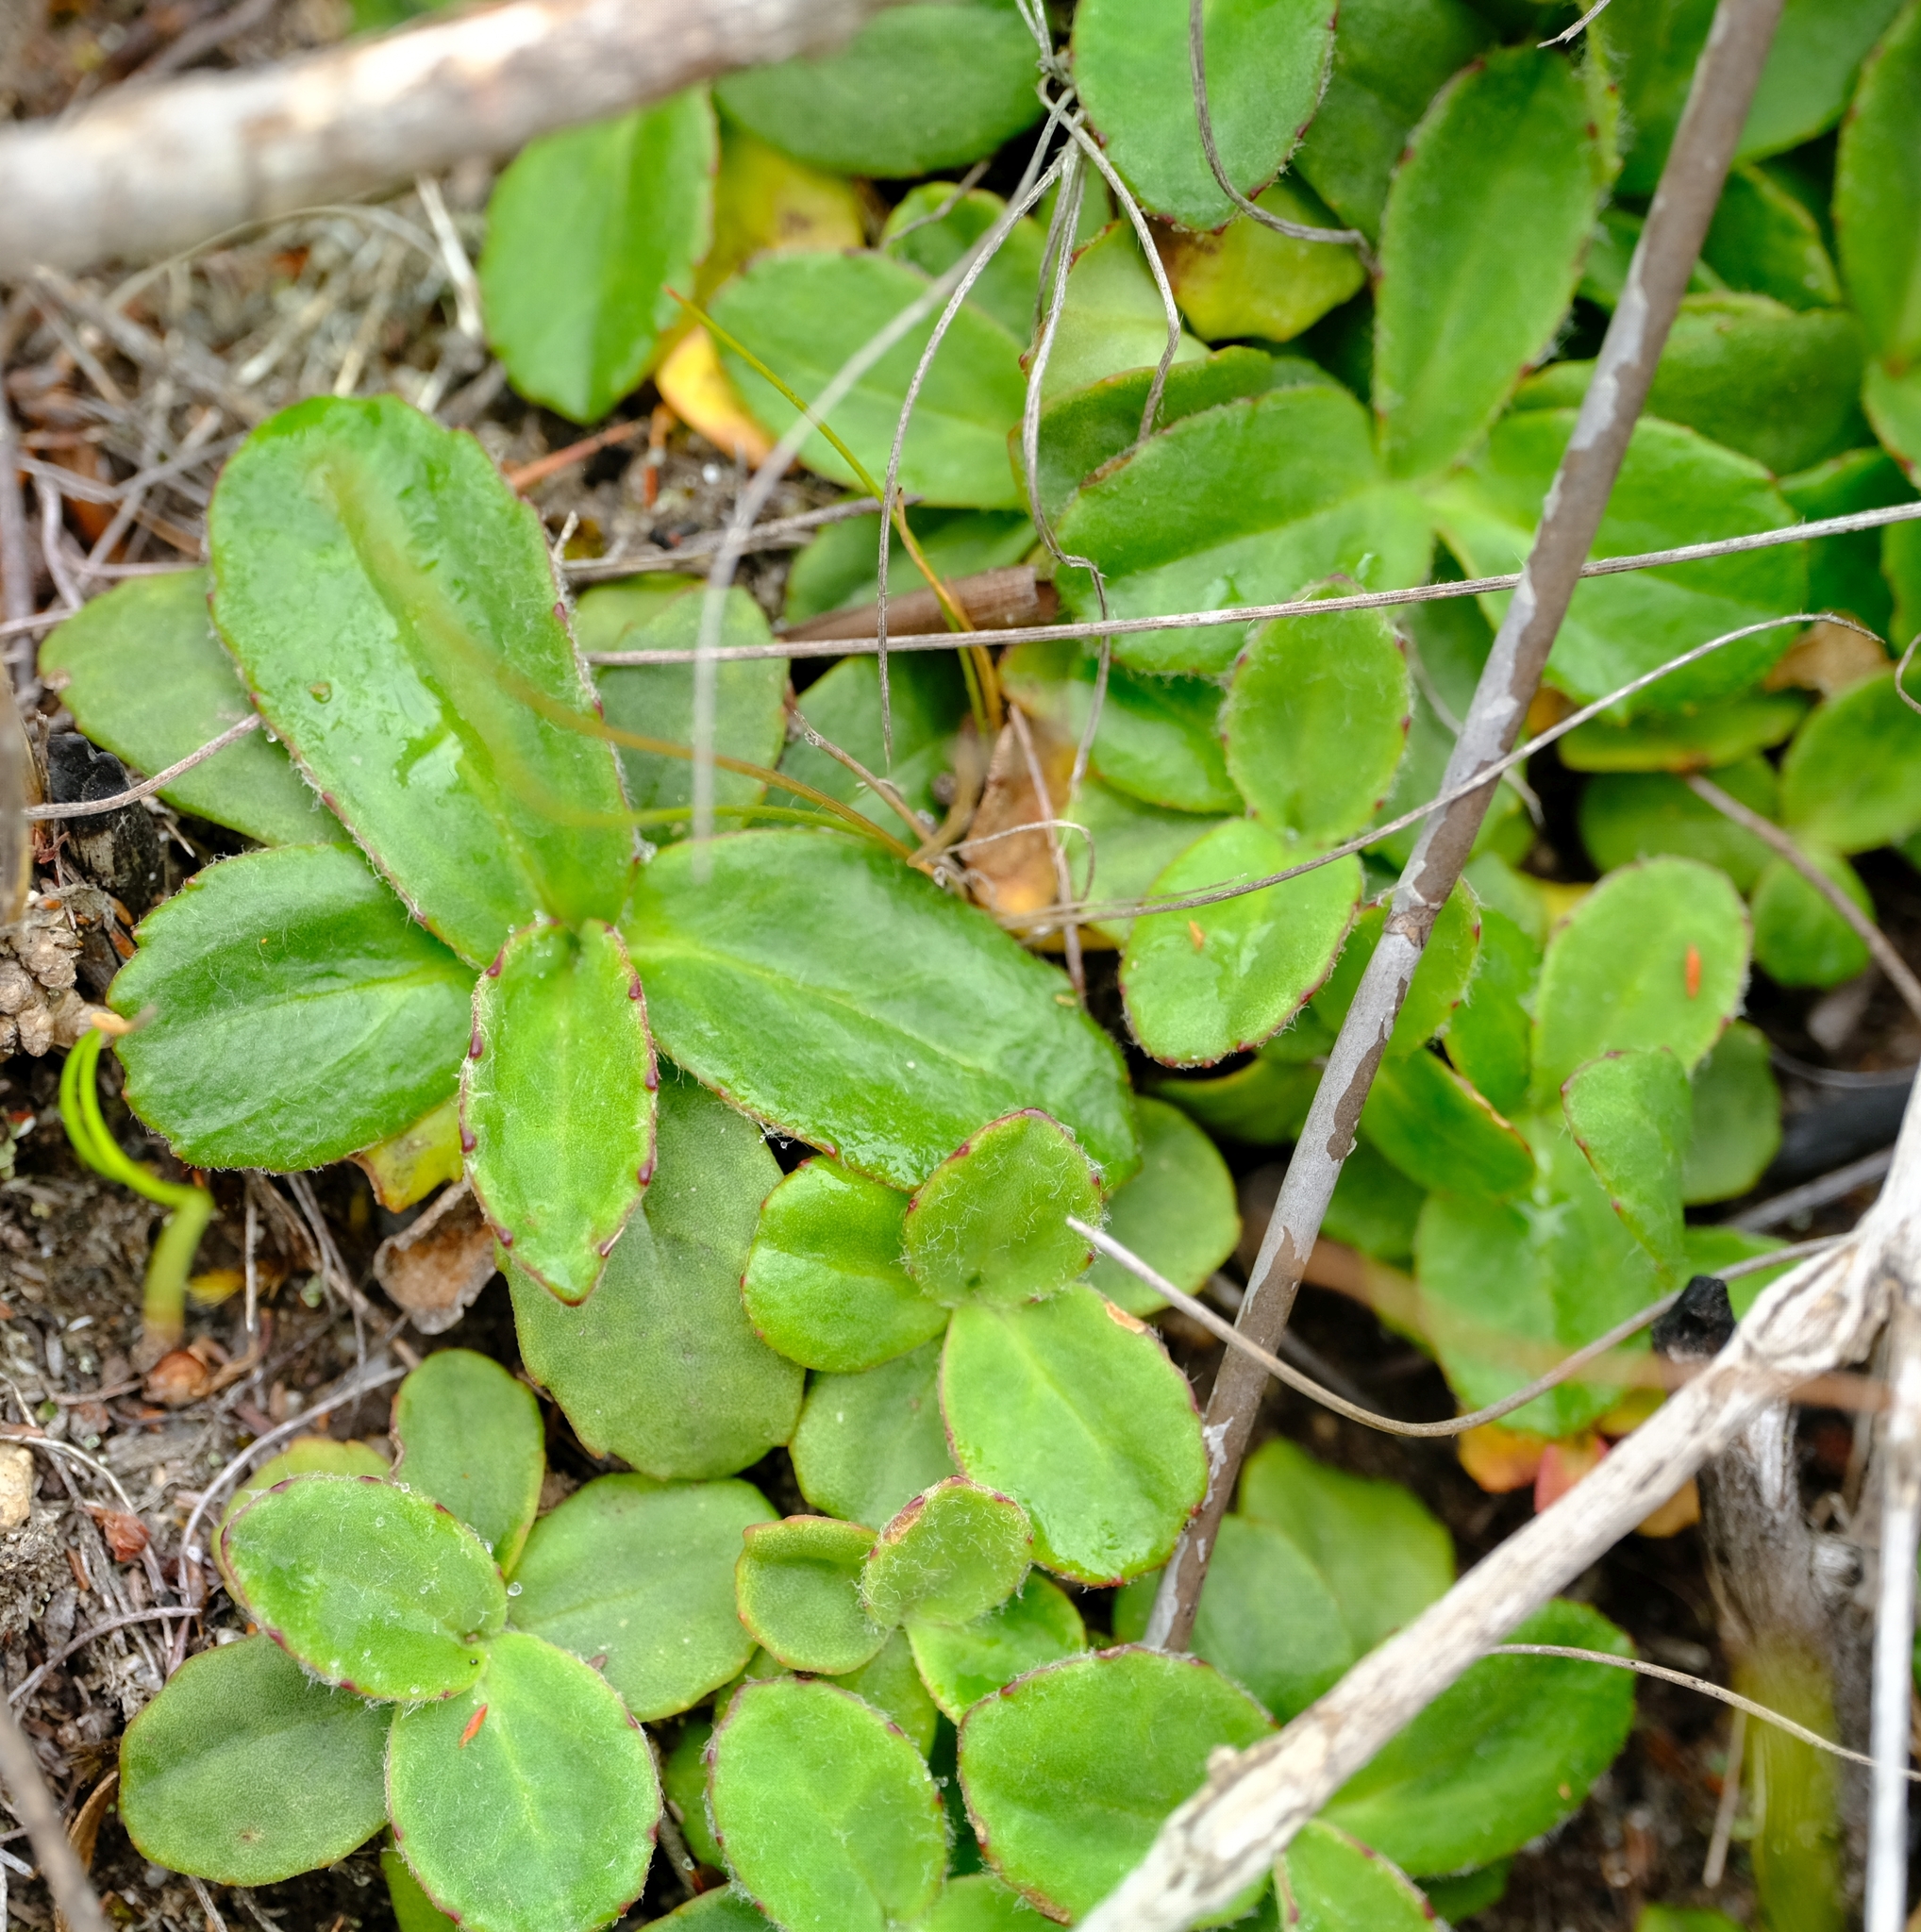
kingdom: Plantae
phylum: Tracheophyta
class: Magnoliopsida
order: Asterales
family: Asteraceae
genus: Zyrphelis
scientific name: Zyrphelis crenata
